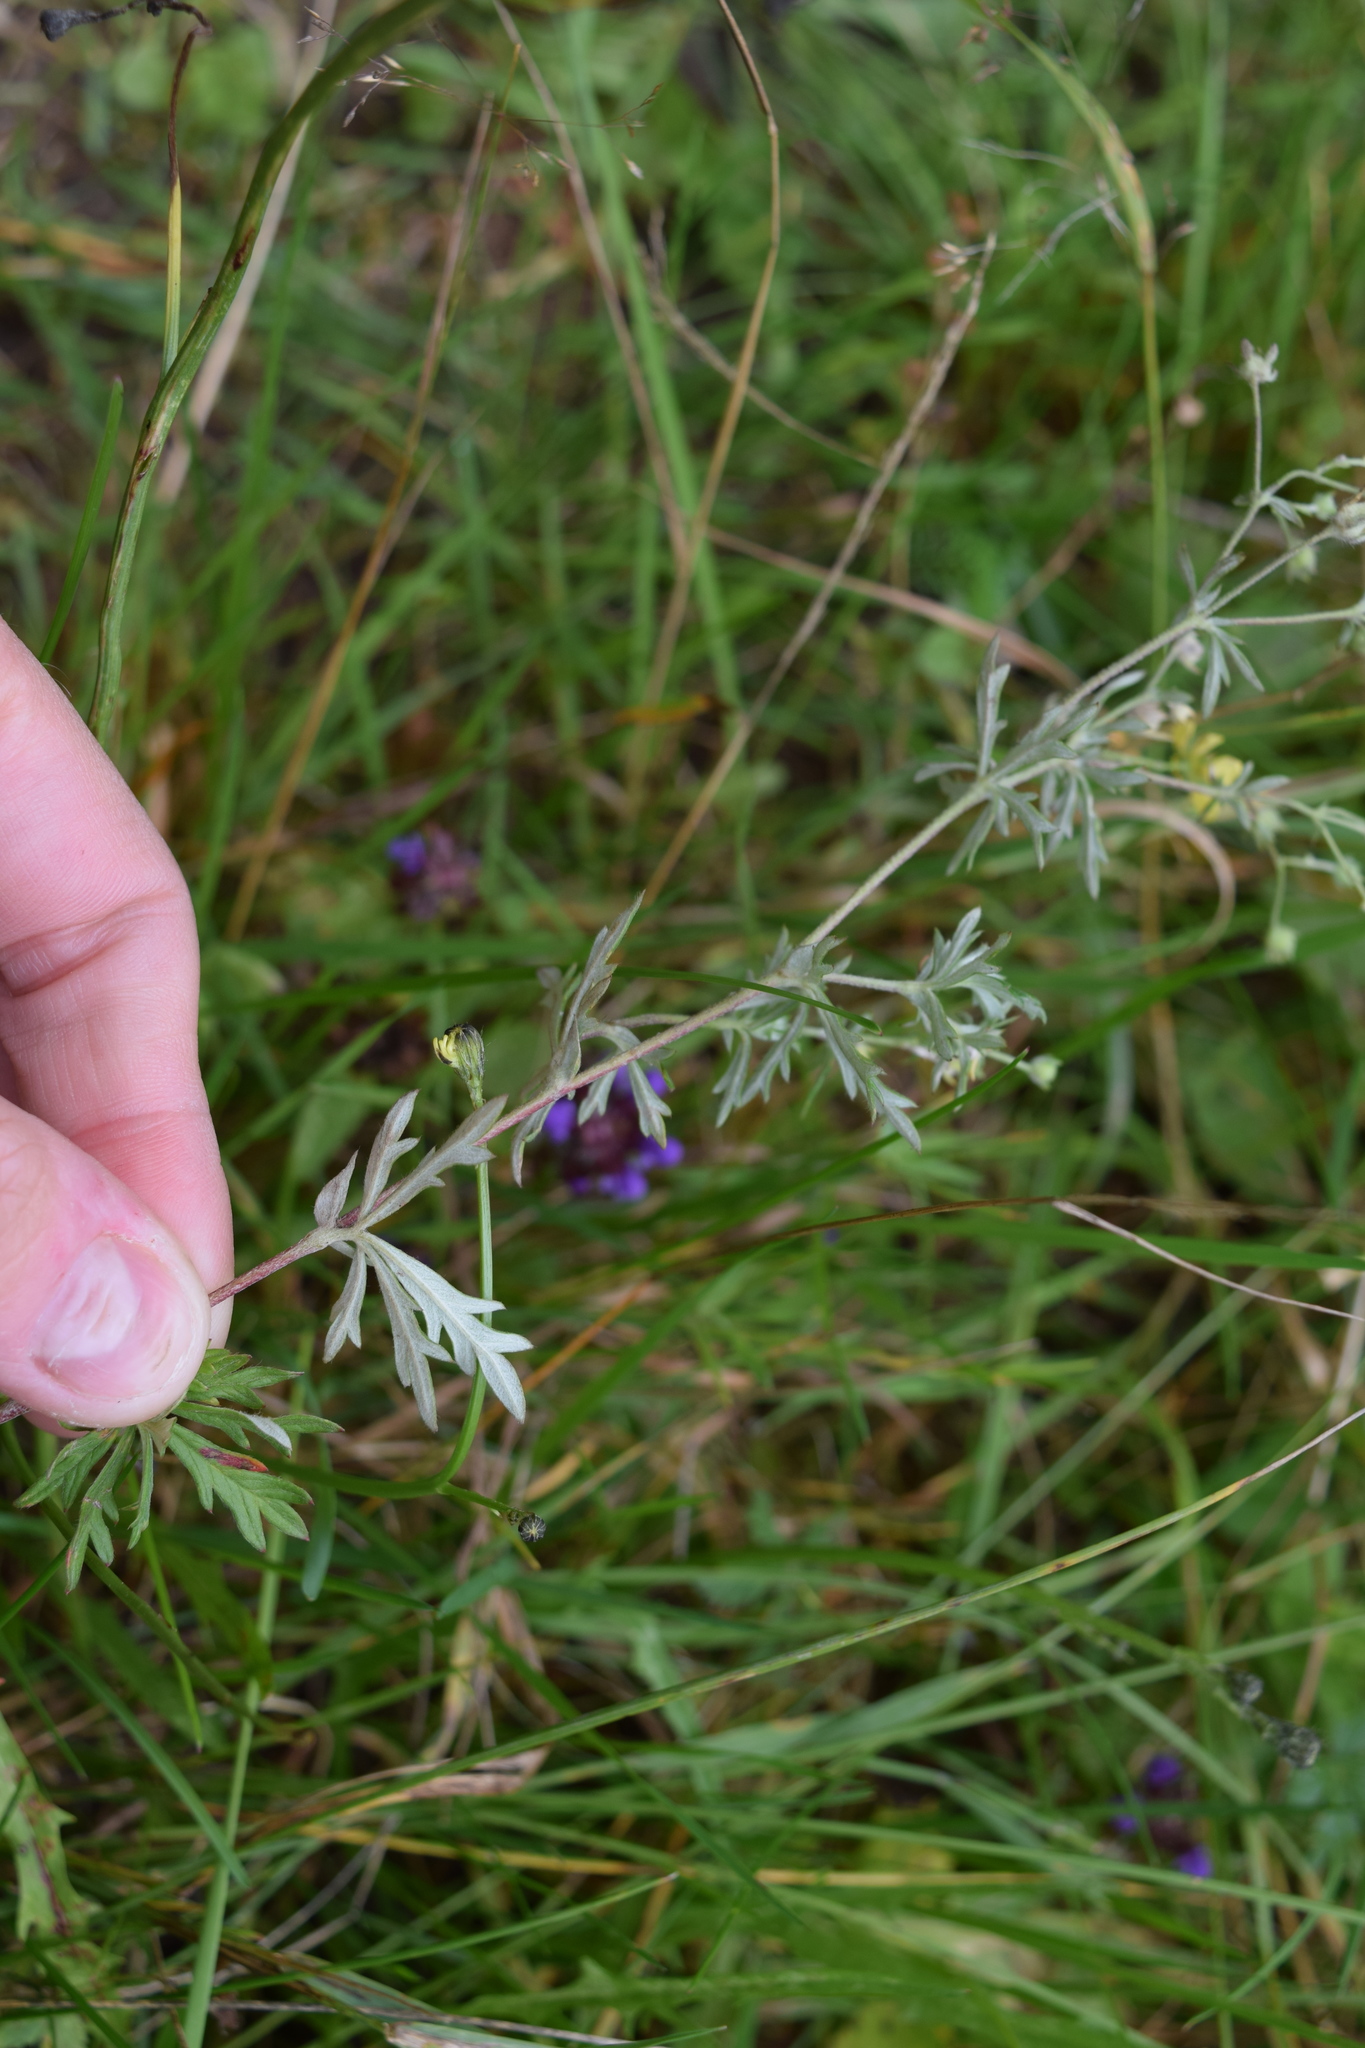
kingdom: Plantae
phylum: Tracheophyta
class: Magnoliopsida
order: Rosales
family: Rosaceae
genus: Potentilla
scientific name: Potentilla argentea
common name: Hoary cinquefoil
